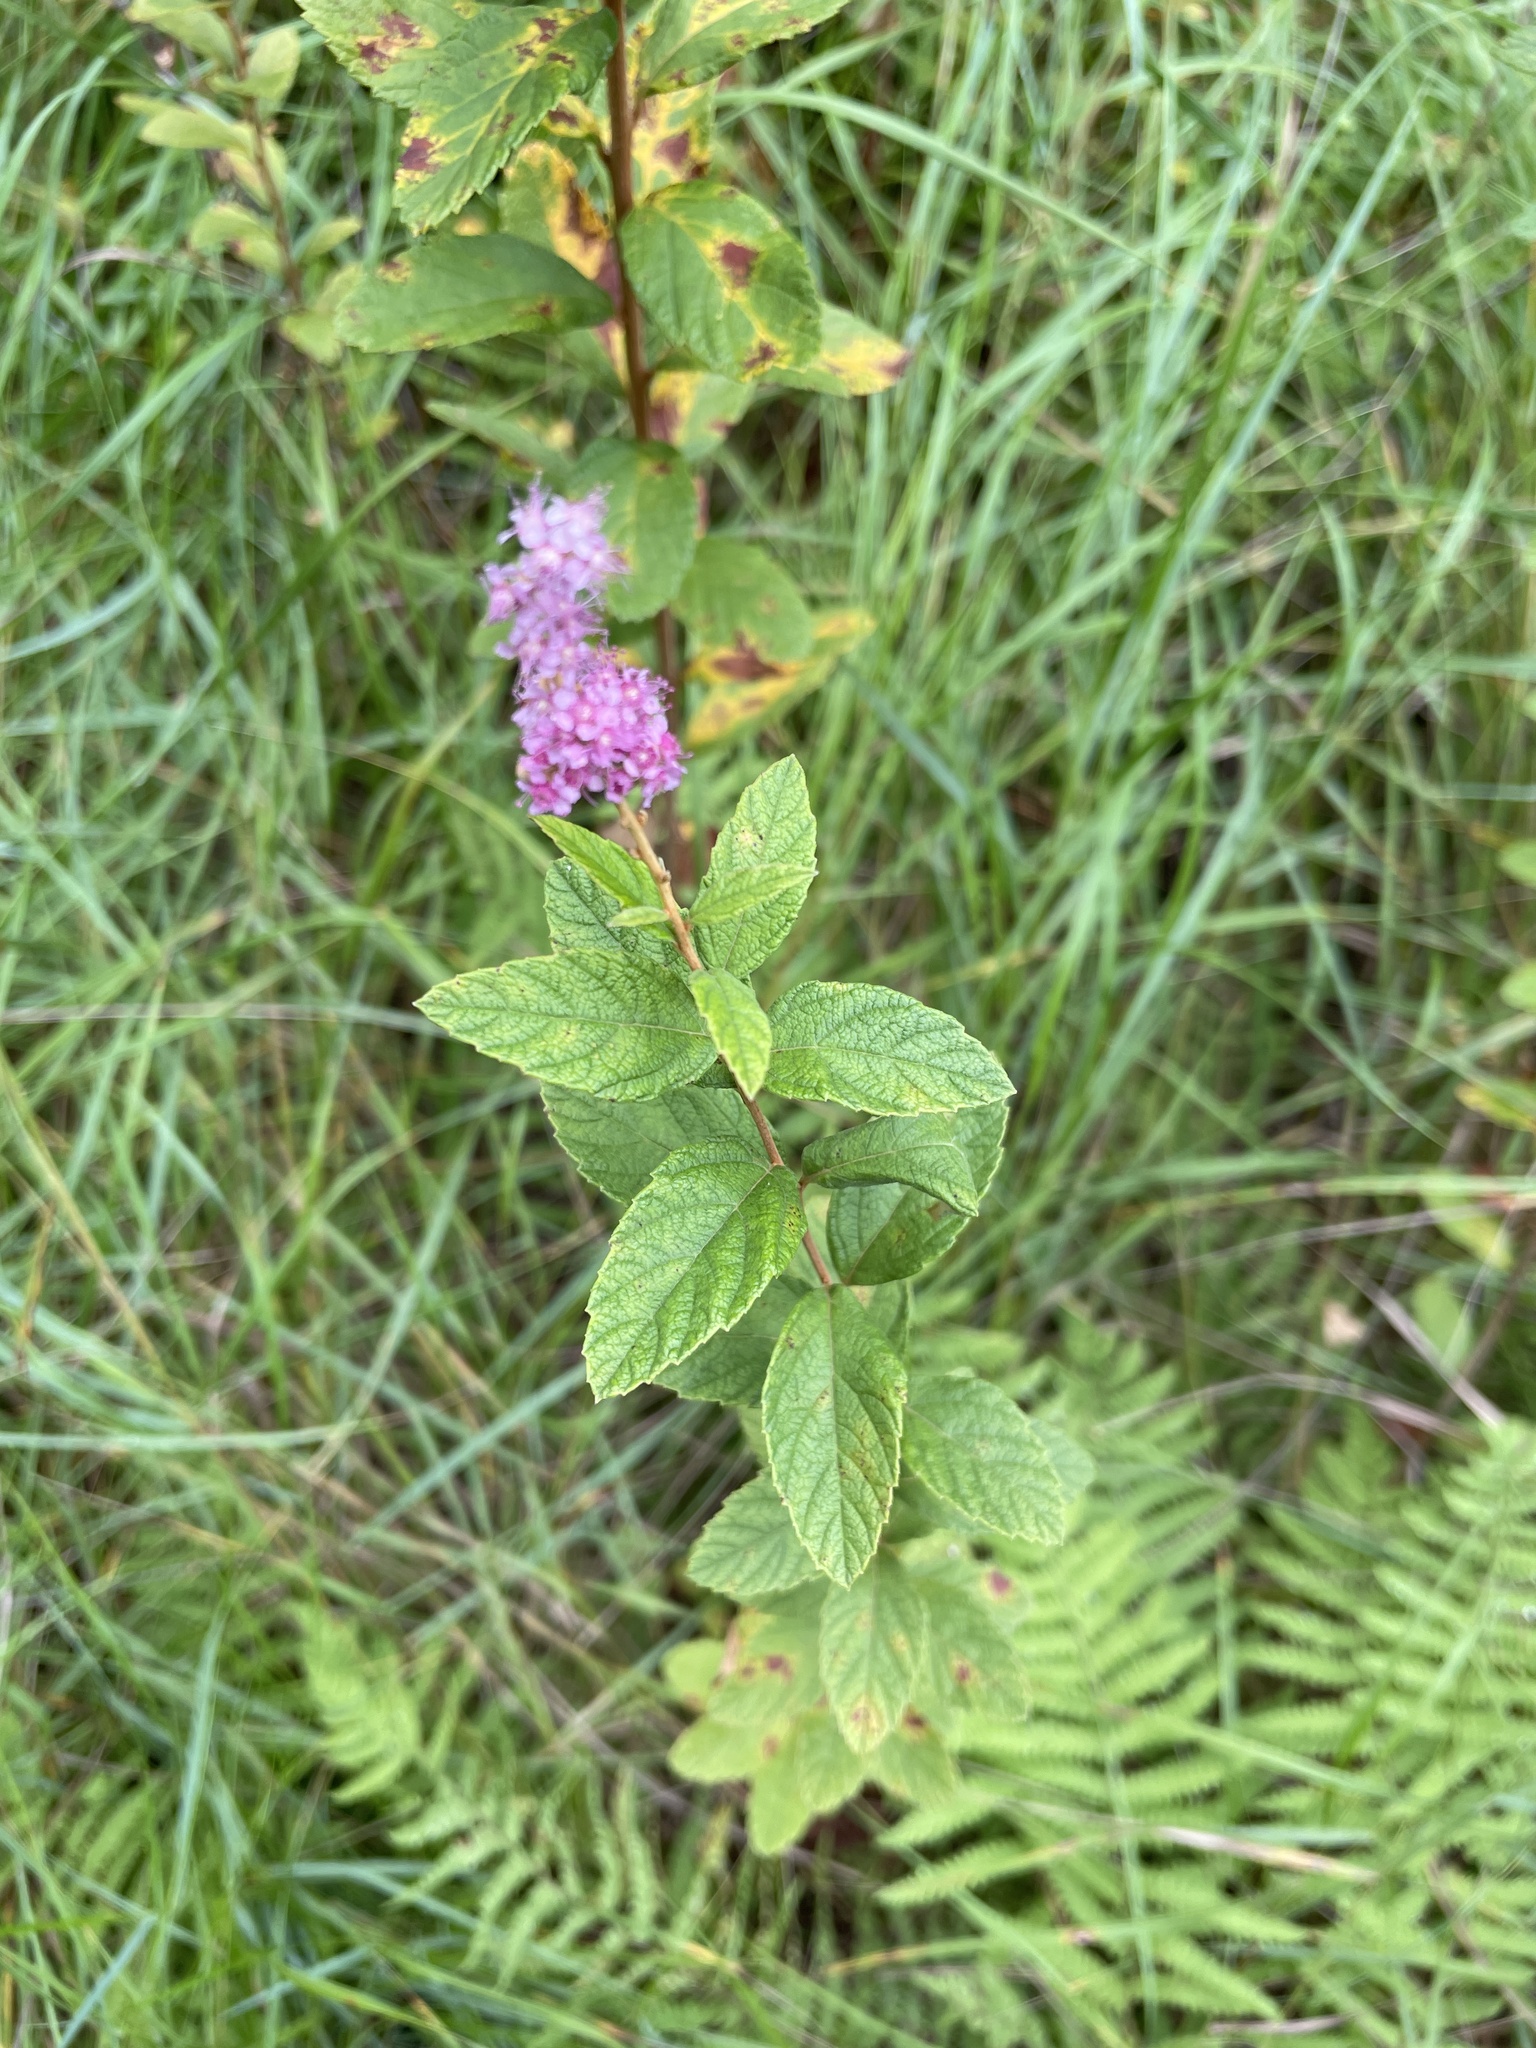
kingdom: Plantae
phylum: Tracheophyta
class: Magnoliopsida
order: Rosales
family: Rosaceae
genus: Spiraea
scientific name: Spiraea tomentosa
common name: Hardhack
